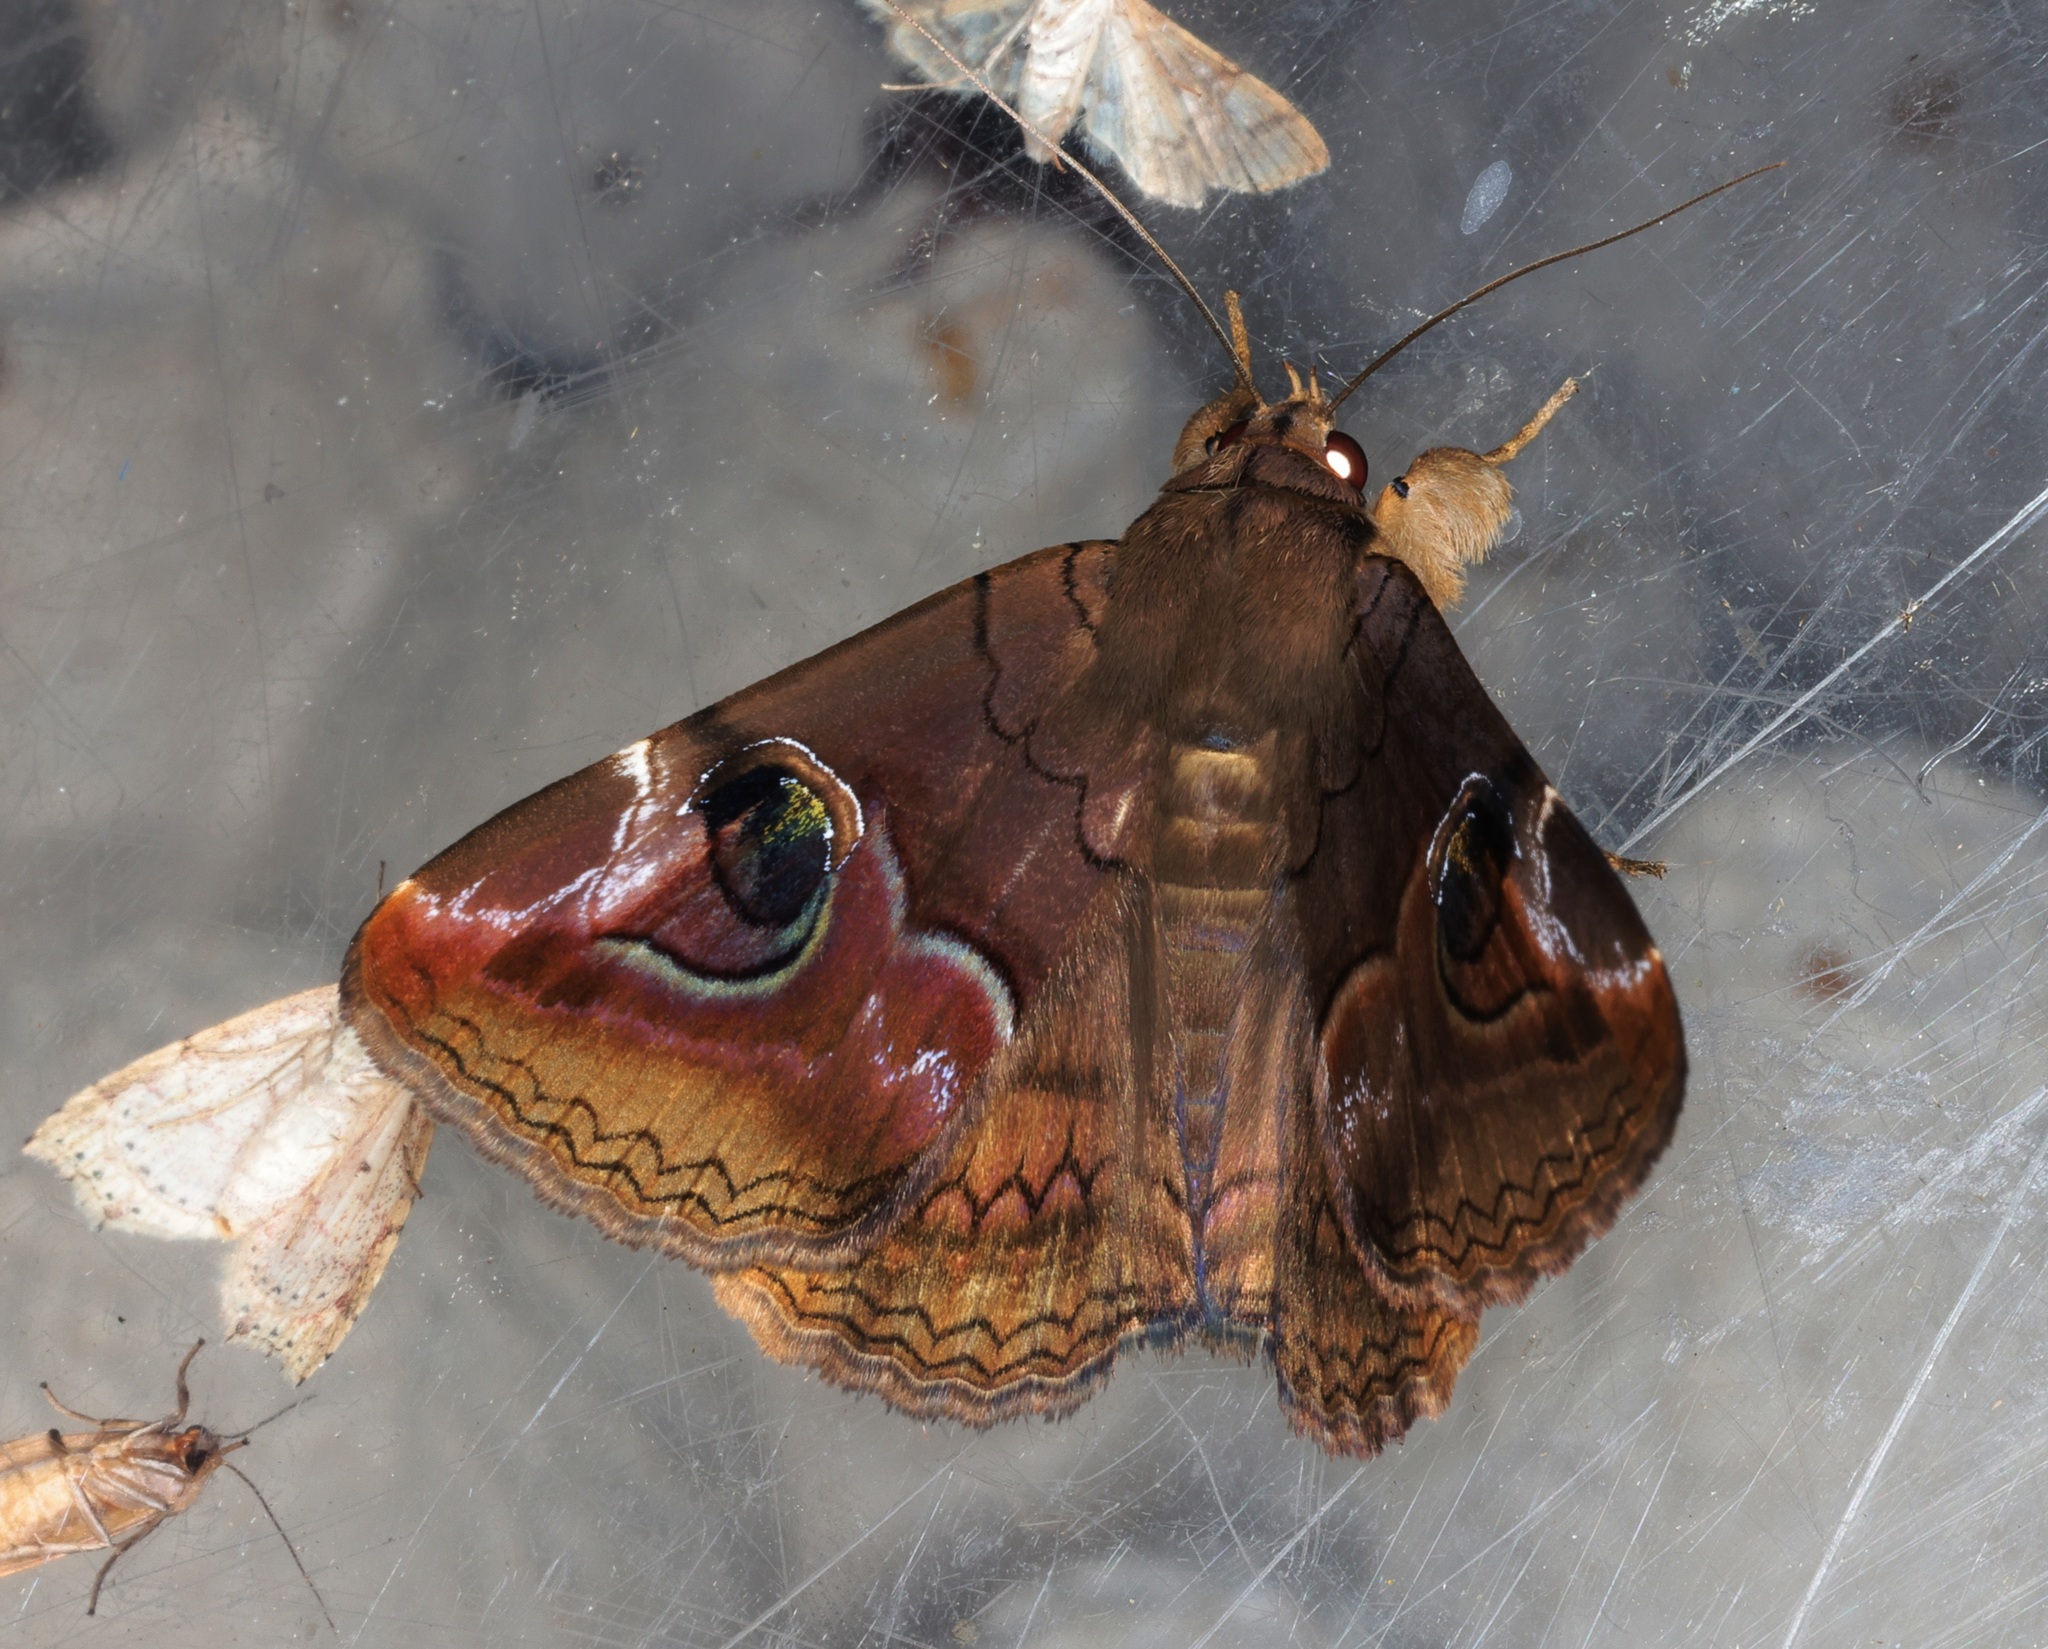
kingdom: Animalia
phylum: Arthropoda
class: Insecta
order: Lepidoptera
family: Erebidae
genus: Ommatophora
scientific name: Ommatophora luminosa
